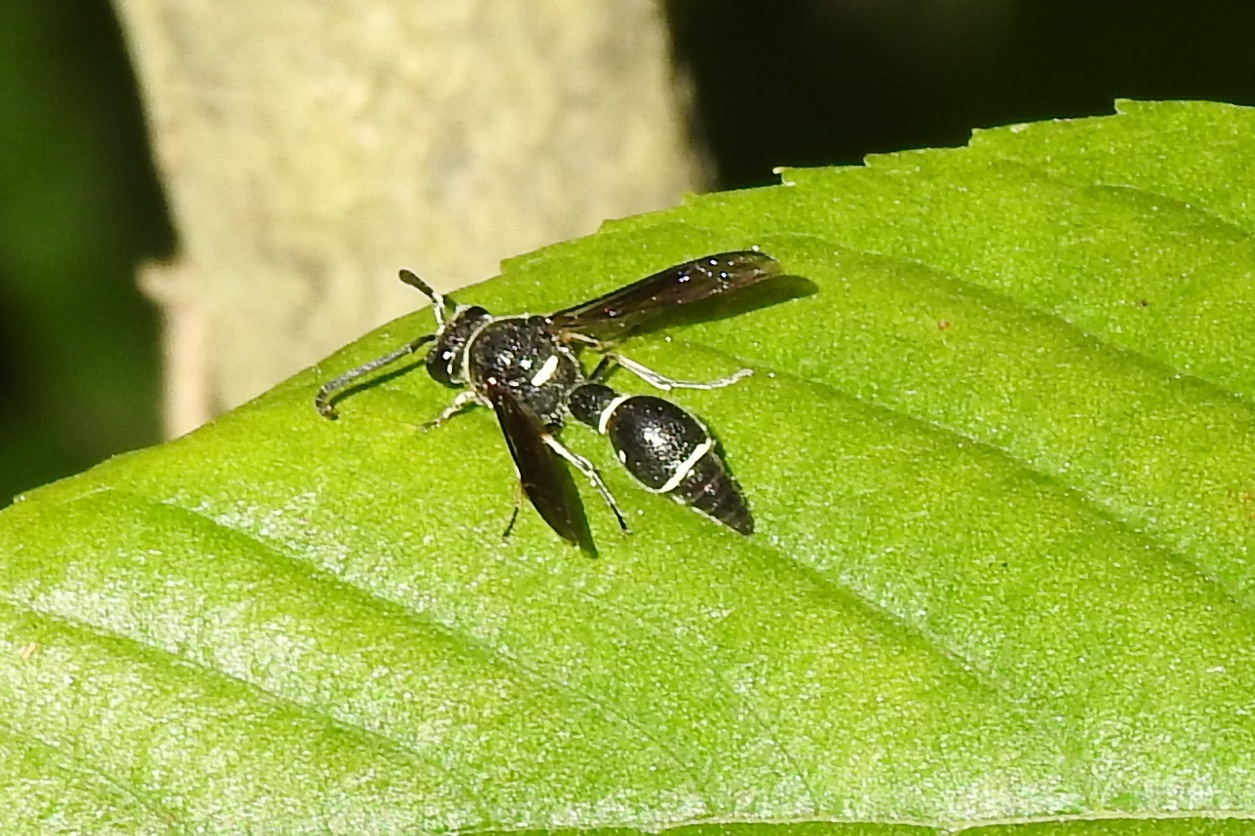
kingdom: Animalia
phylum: Arthropoda
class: Insecta
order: Hymenoptera
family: Vespidae
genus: Eumenes
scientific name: Eumenes fraternus
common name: Fraternal potter wasp
